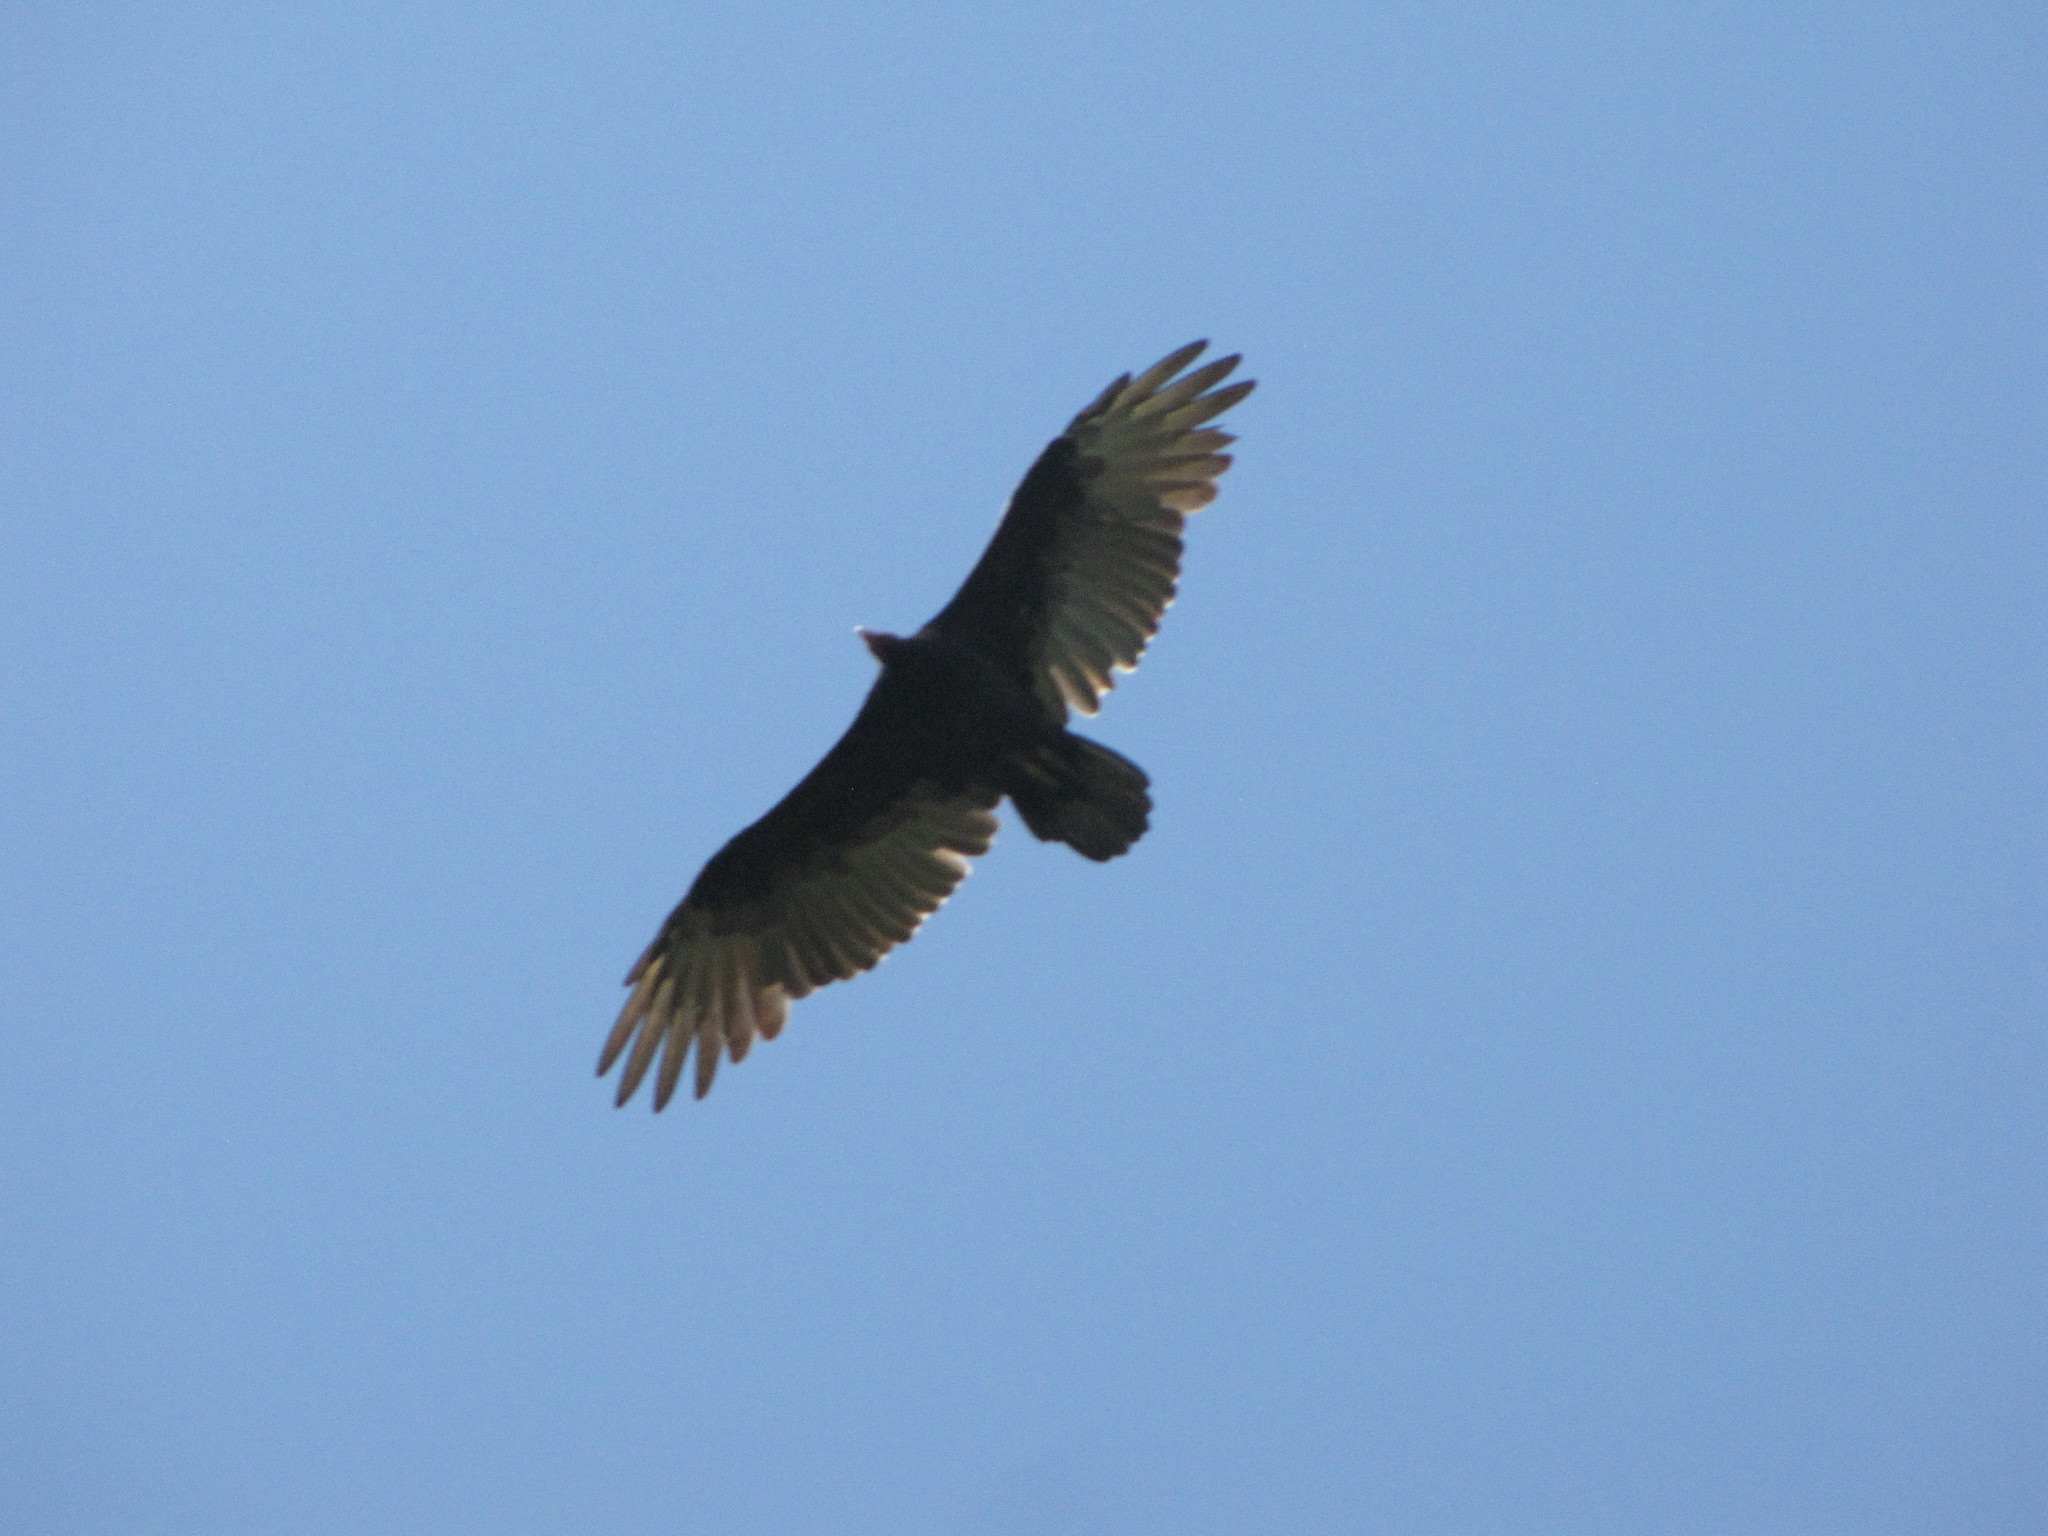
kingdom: Animalia
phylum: Chordata
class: Aves
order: Accipitriformes
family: Cathartidae
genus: Cathartes
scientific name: Cathartes aura
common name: Turkey vulture
